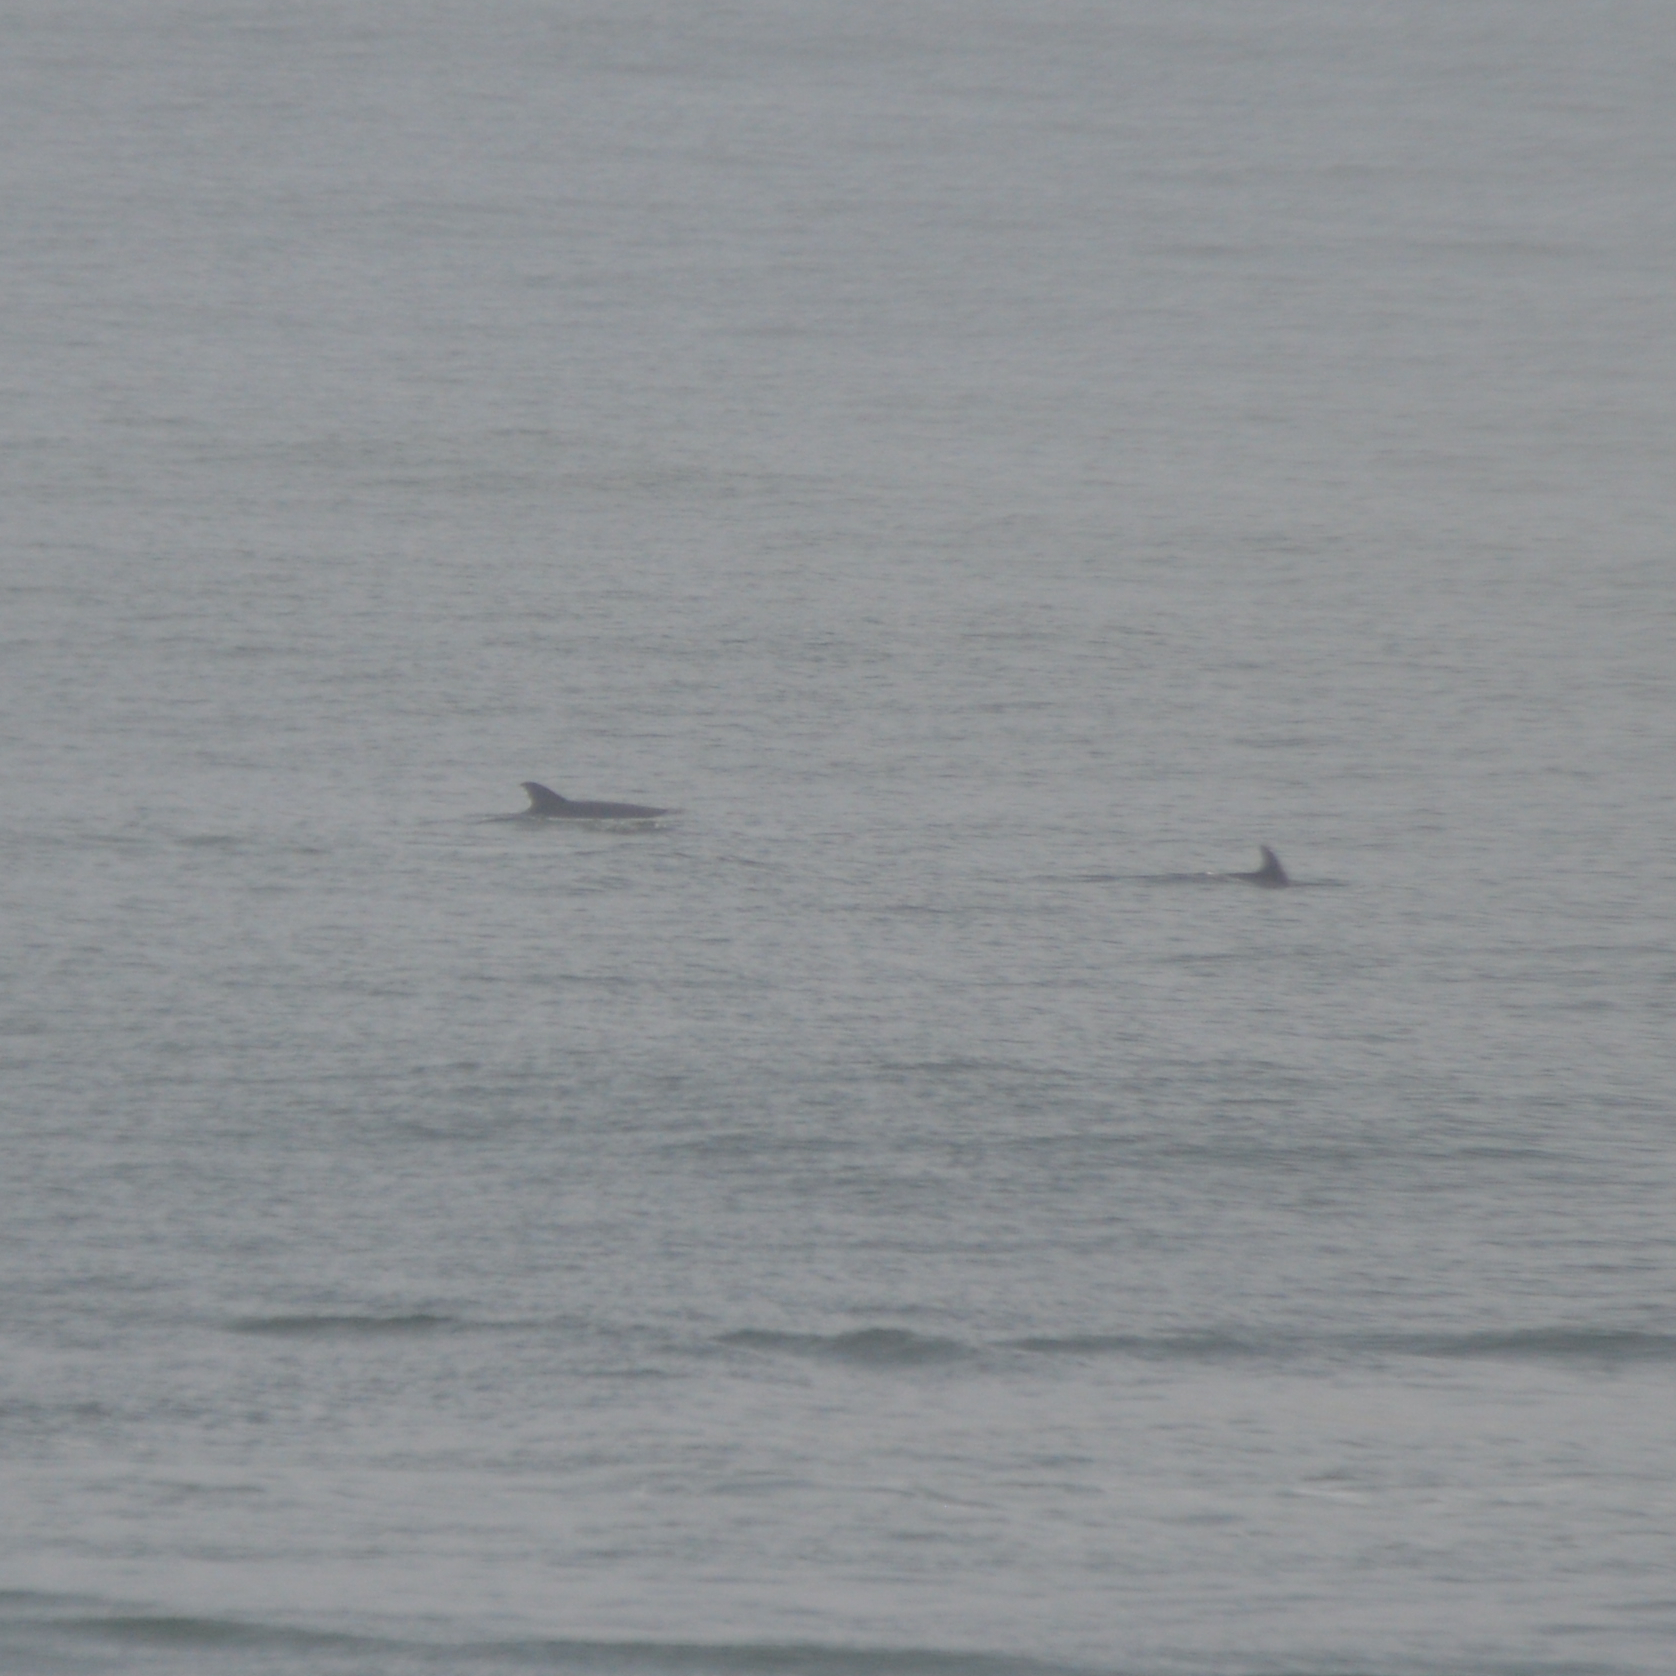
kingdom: Animalia
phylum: Chordata
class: Mammalia
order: Cetacea
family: Delphinidae
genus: Tursiops
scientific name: Tursiops truncatus
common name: Bottlenose dolphin
